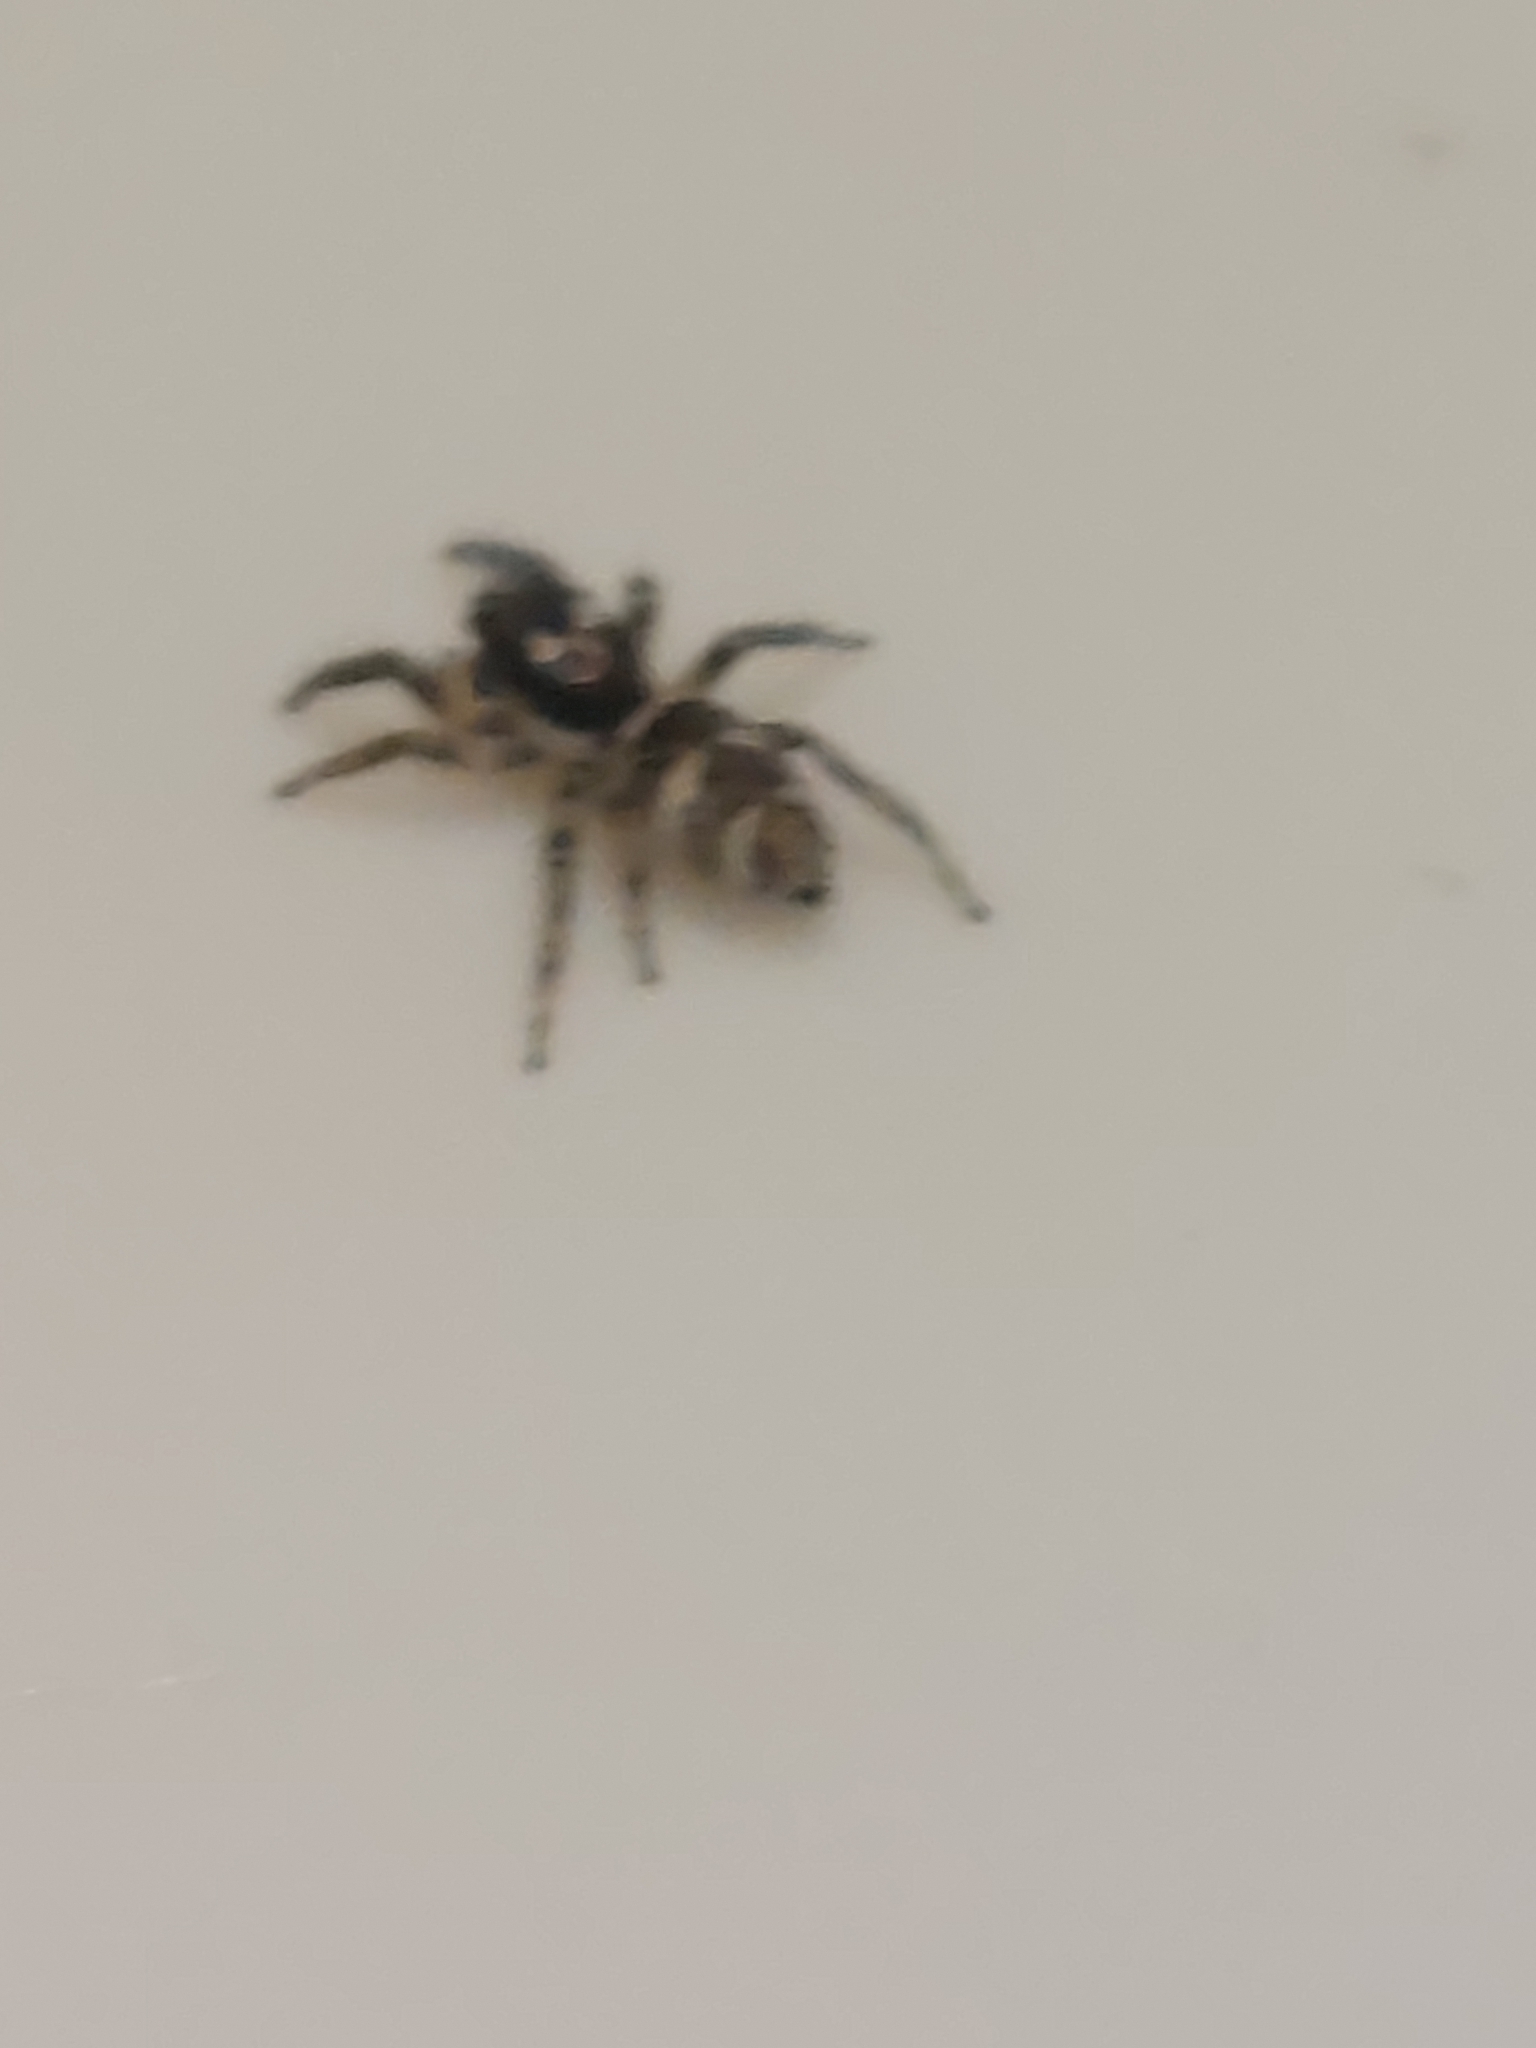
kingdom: Animalia
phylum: Arthropoda
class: Arachnida
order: Araneae
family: Salticidae
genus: Salticus
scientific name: Salticus scenicus
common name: Zebra jumper
